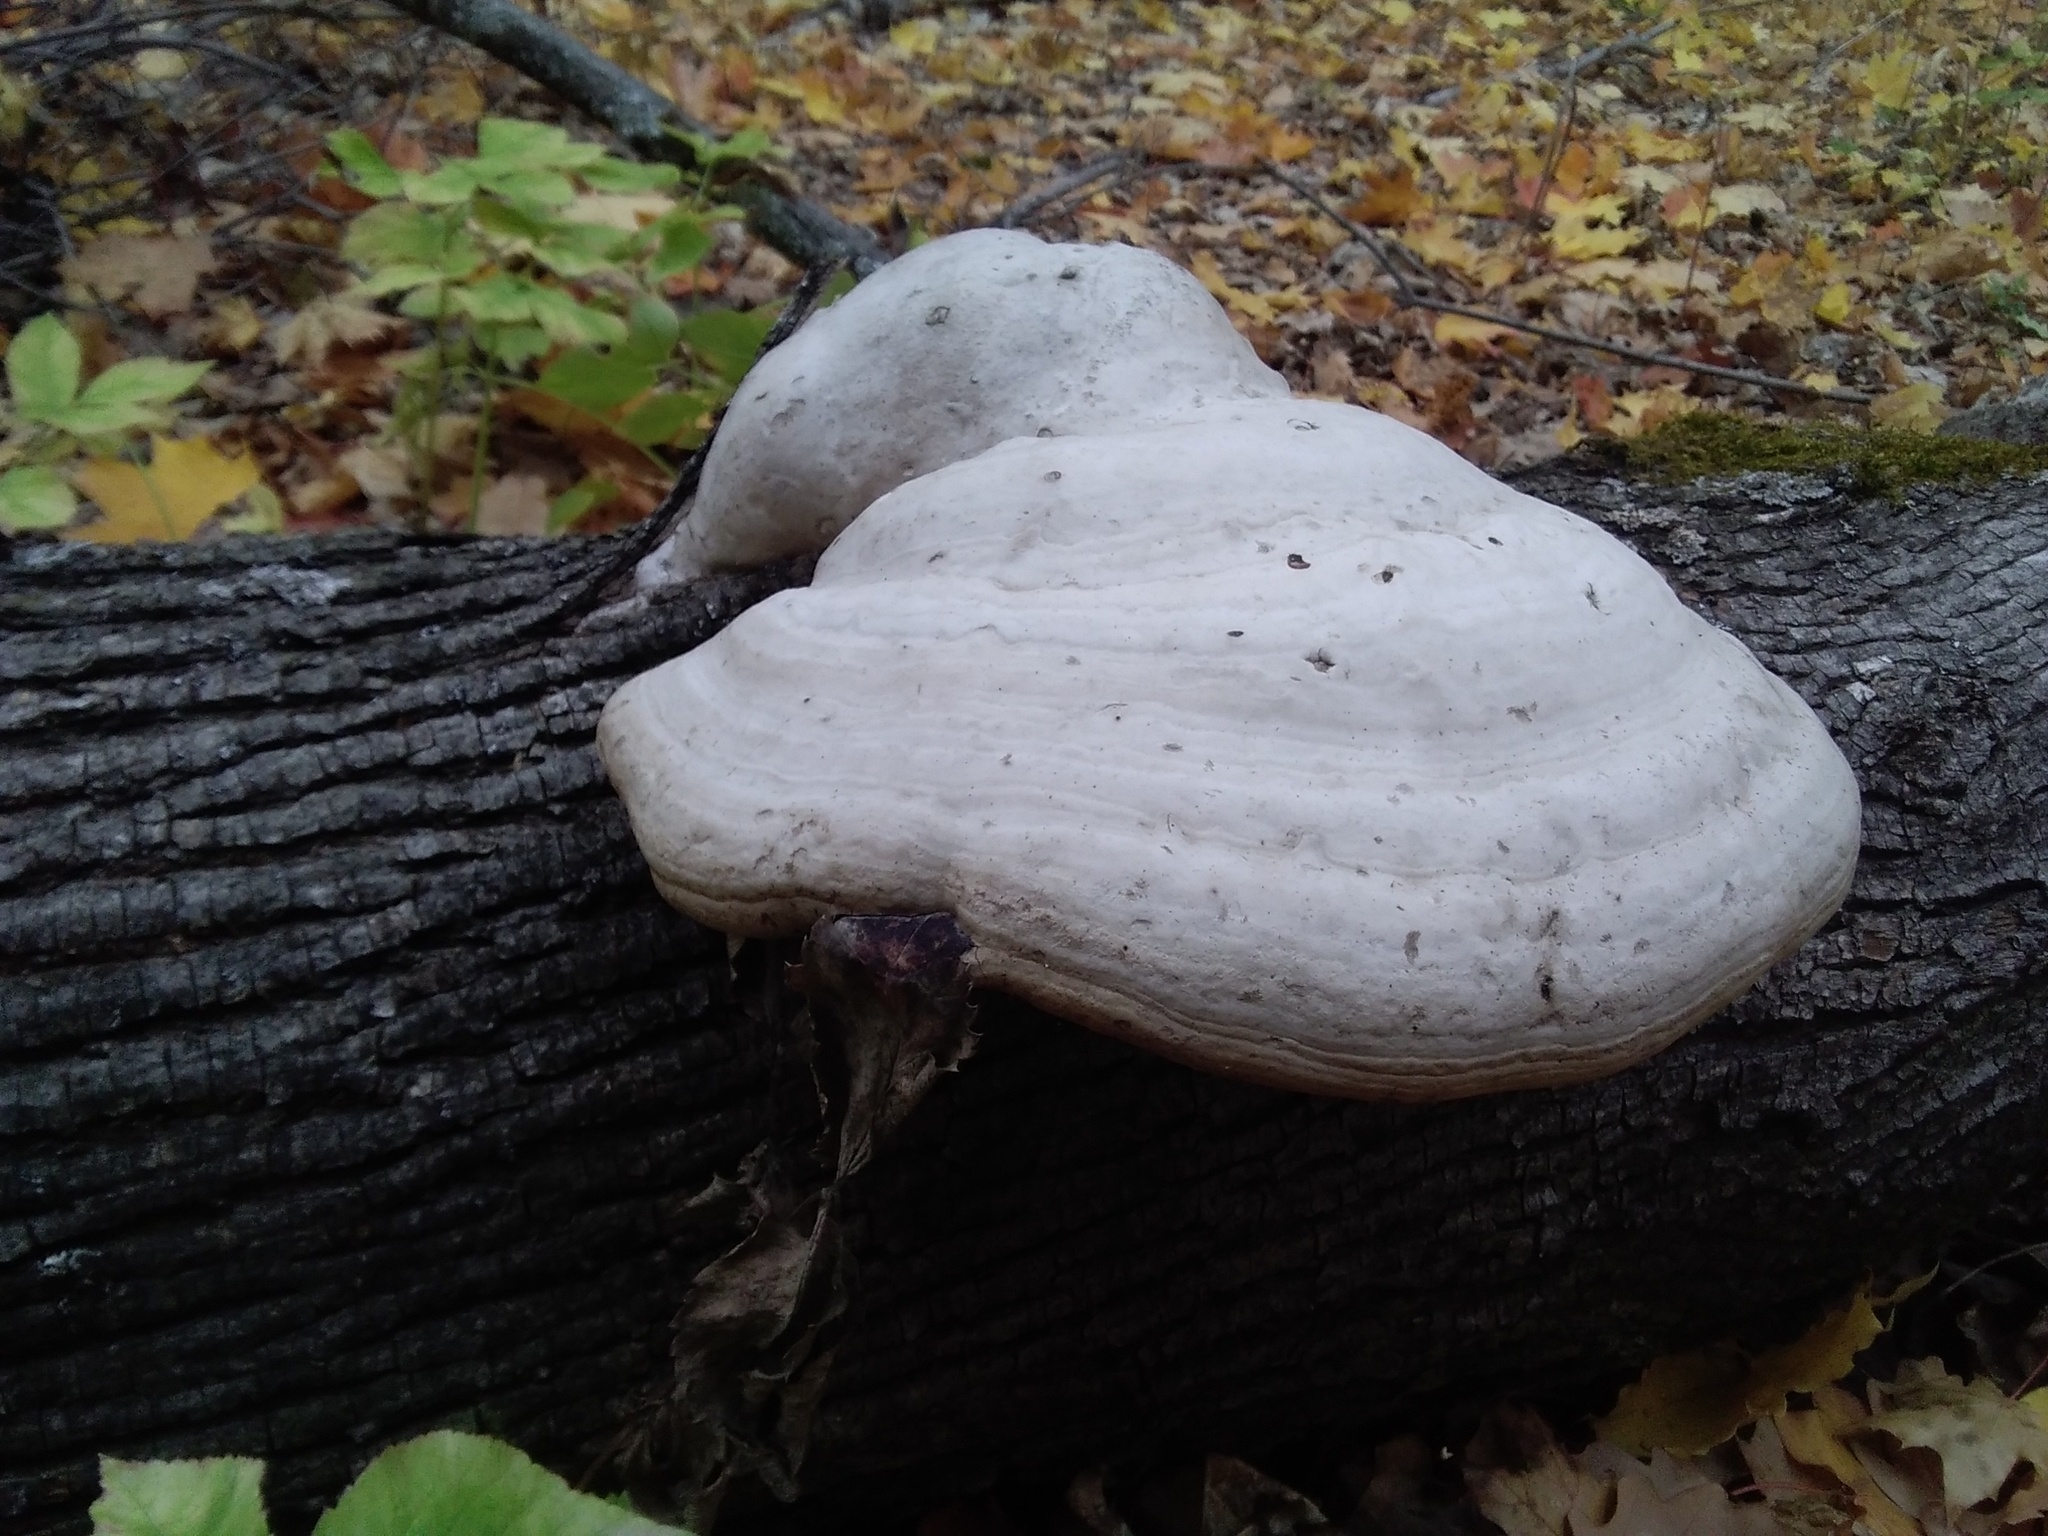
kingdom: Fungi
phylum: Basidiomycota
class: Agaricomycetes
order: Polyporales
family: Polyporaceae
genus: Fomes
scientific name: Fomes fomentarius
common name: Hoof fungus
